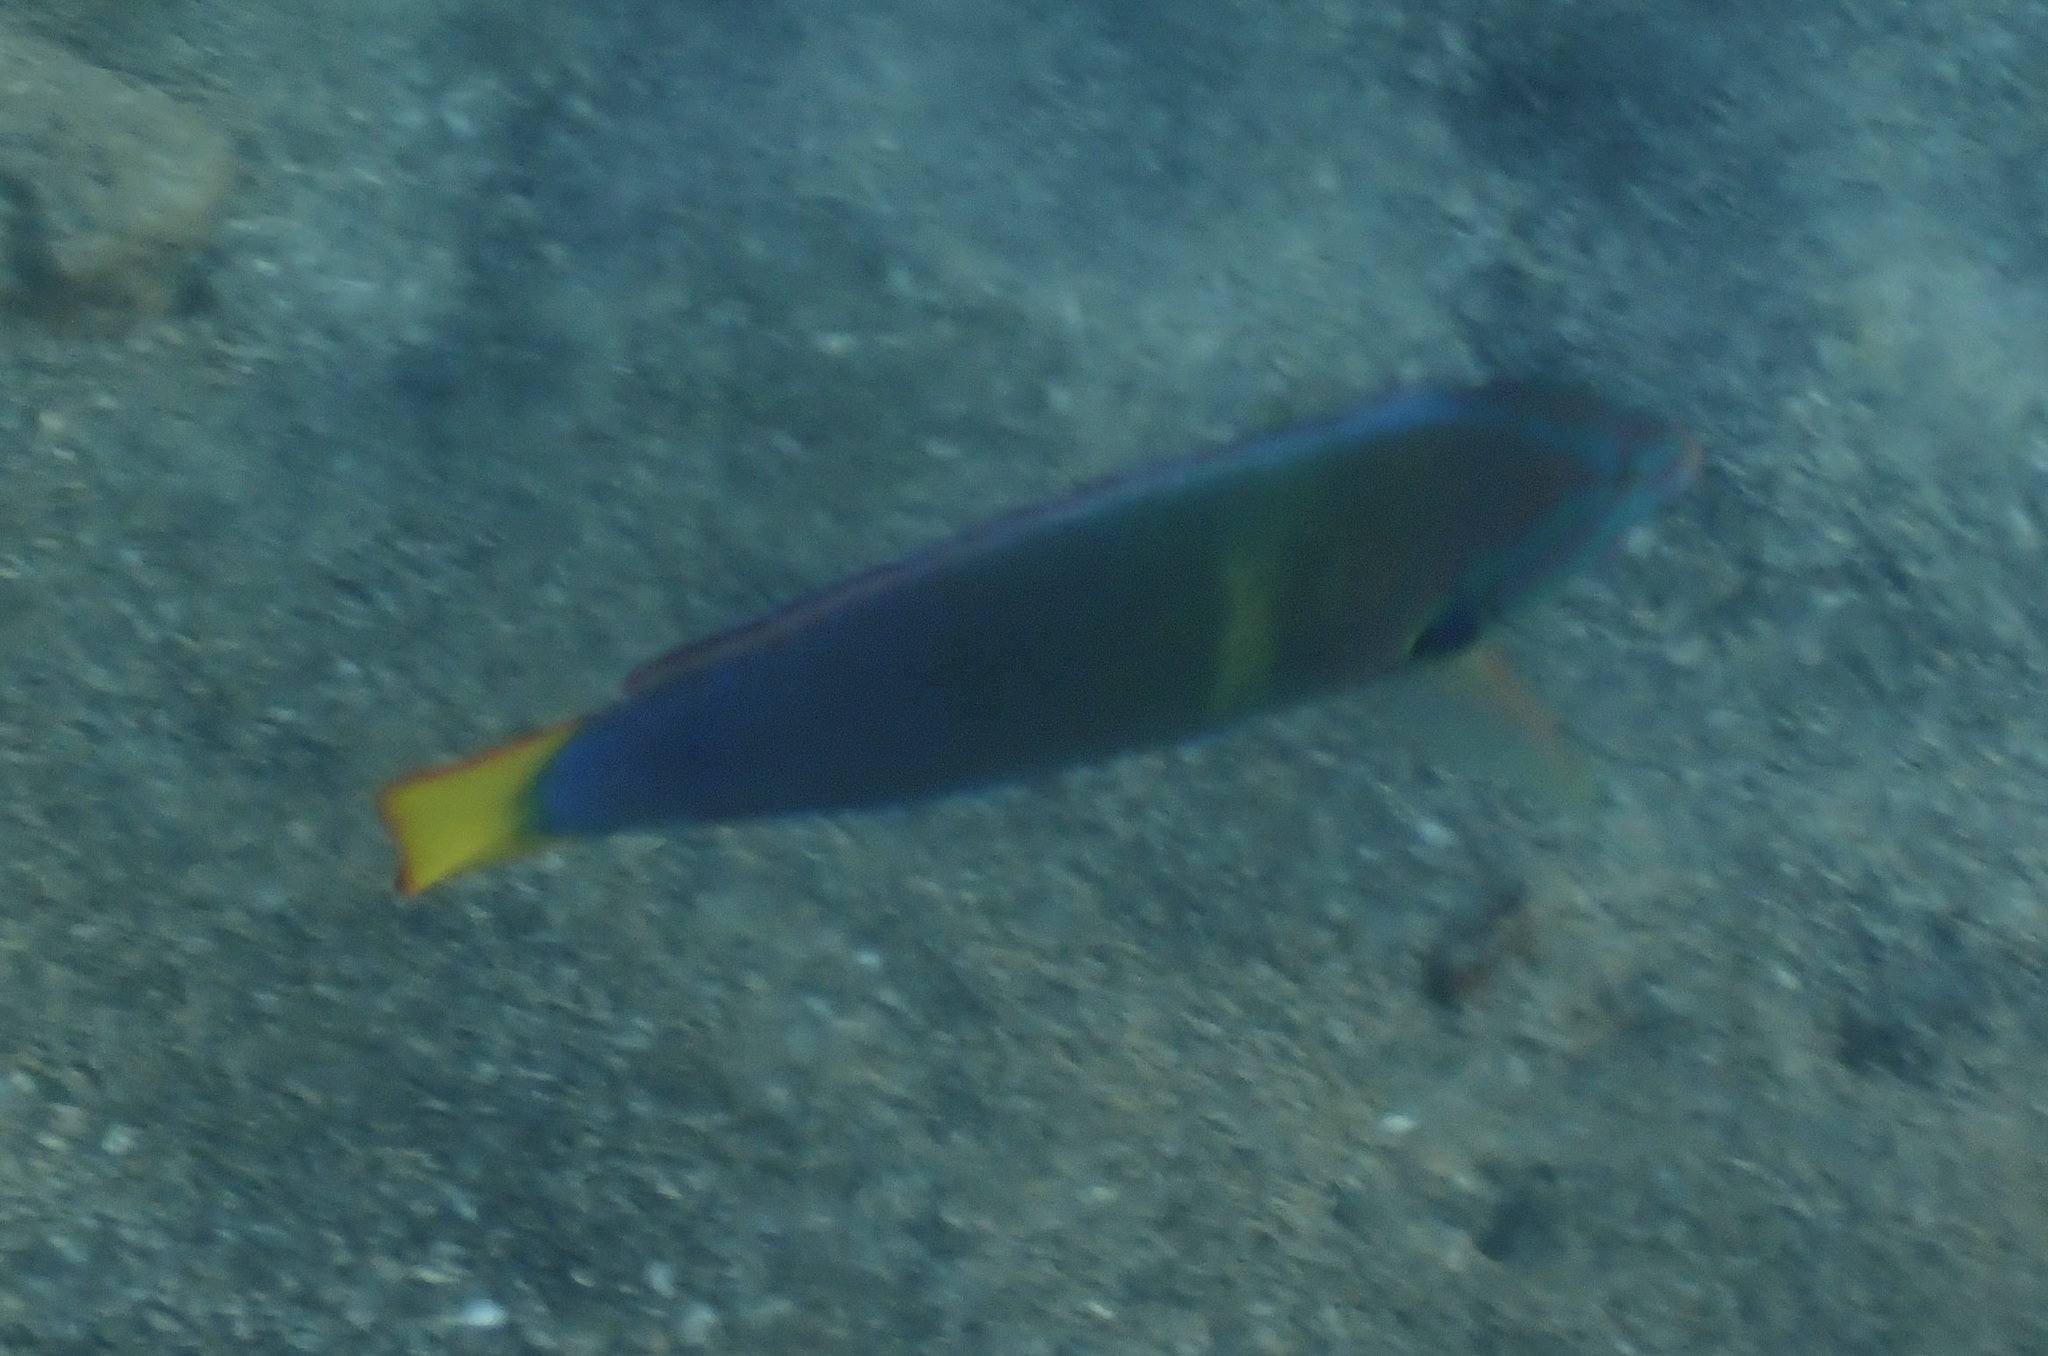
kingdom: Animalia
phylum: Chordata
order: Perciformes
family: Labridae
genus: Coris
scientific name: Coris gaimard
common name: Yellowtail coris
